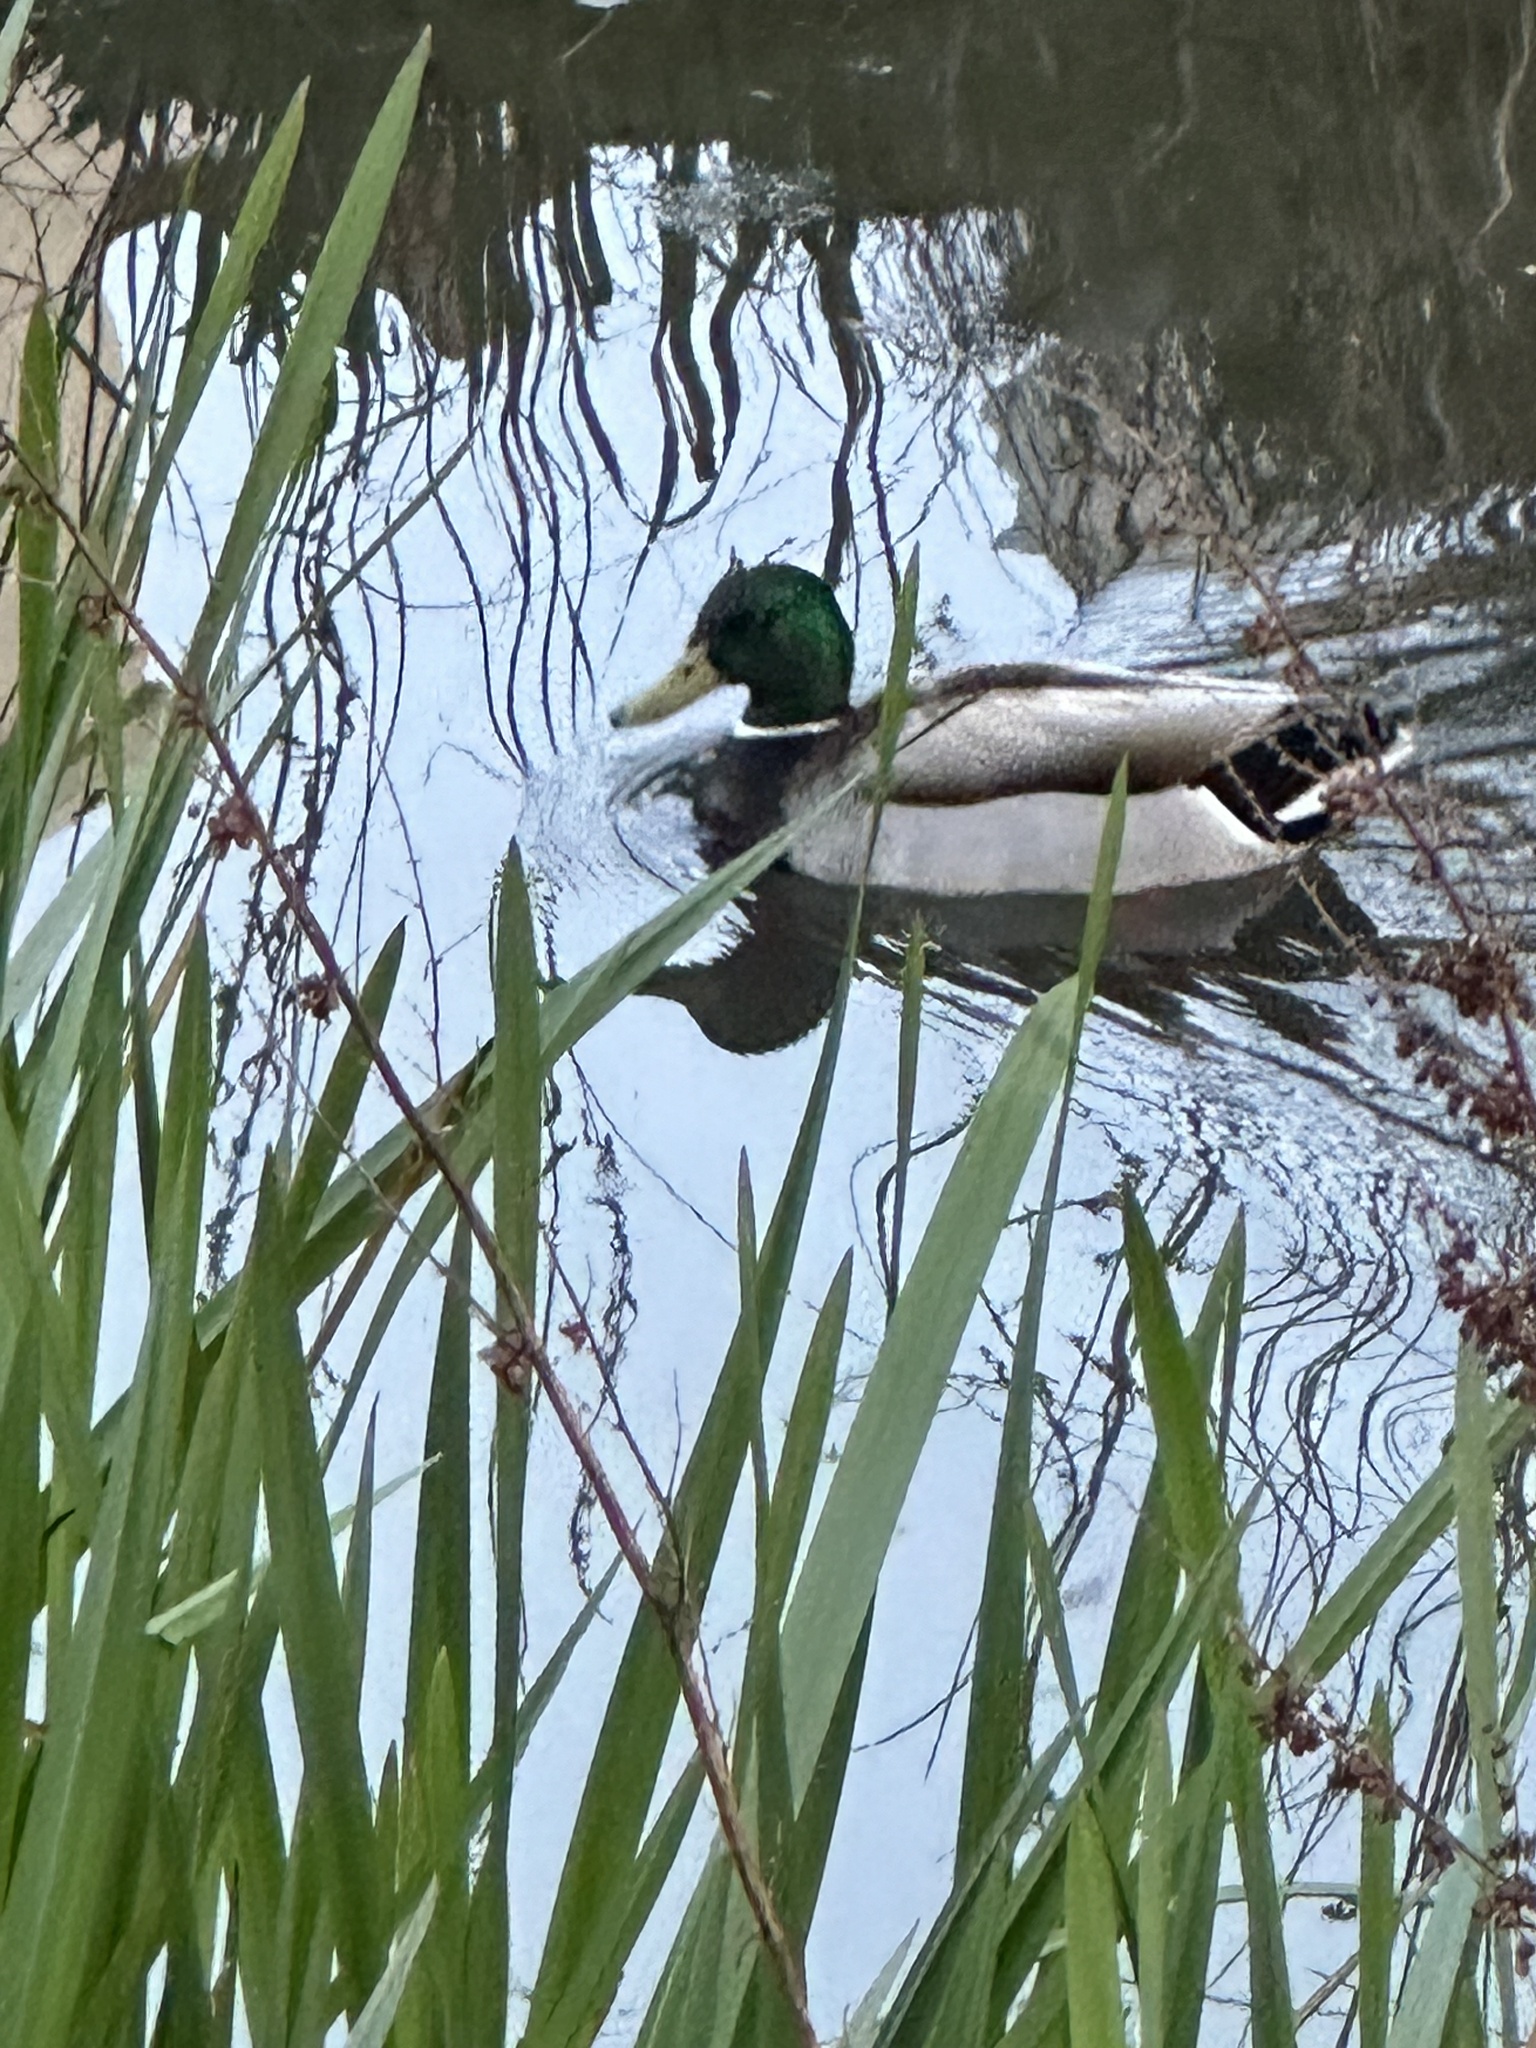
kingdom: Animalia
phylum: Chordata
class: Aves
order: Anseriformes
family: Anatidae
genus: Anas
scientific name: Anas platyrhynchos
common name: Mallard
